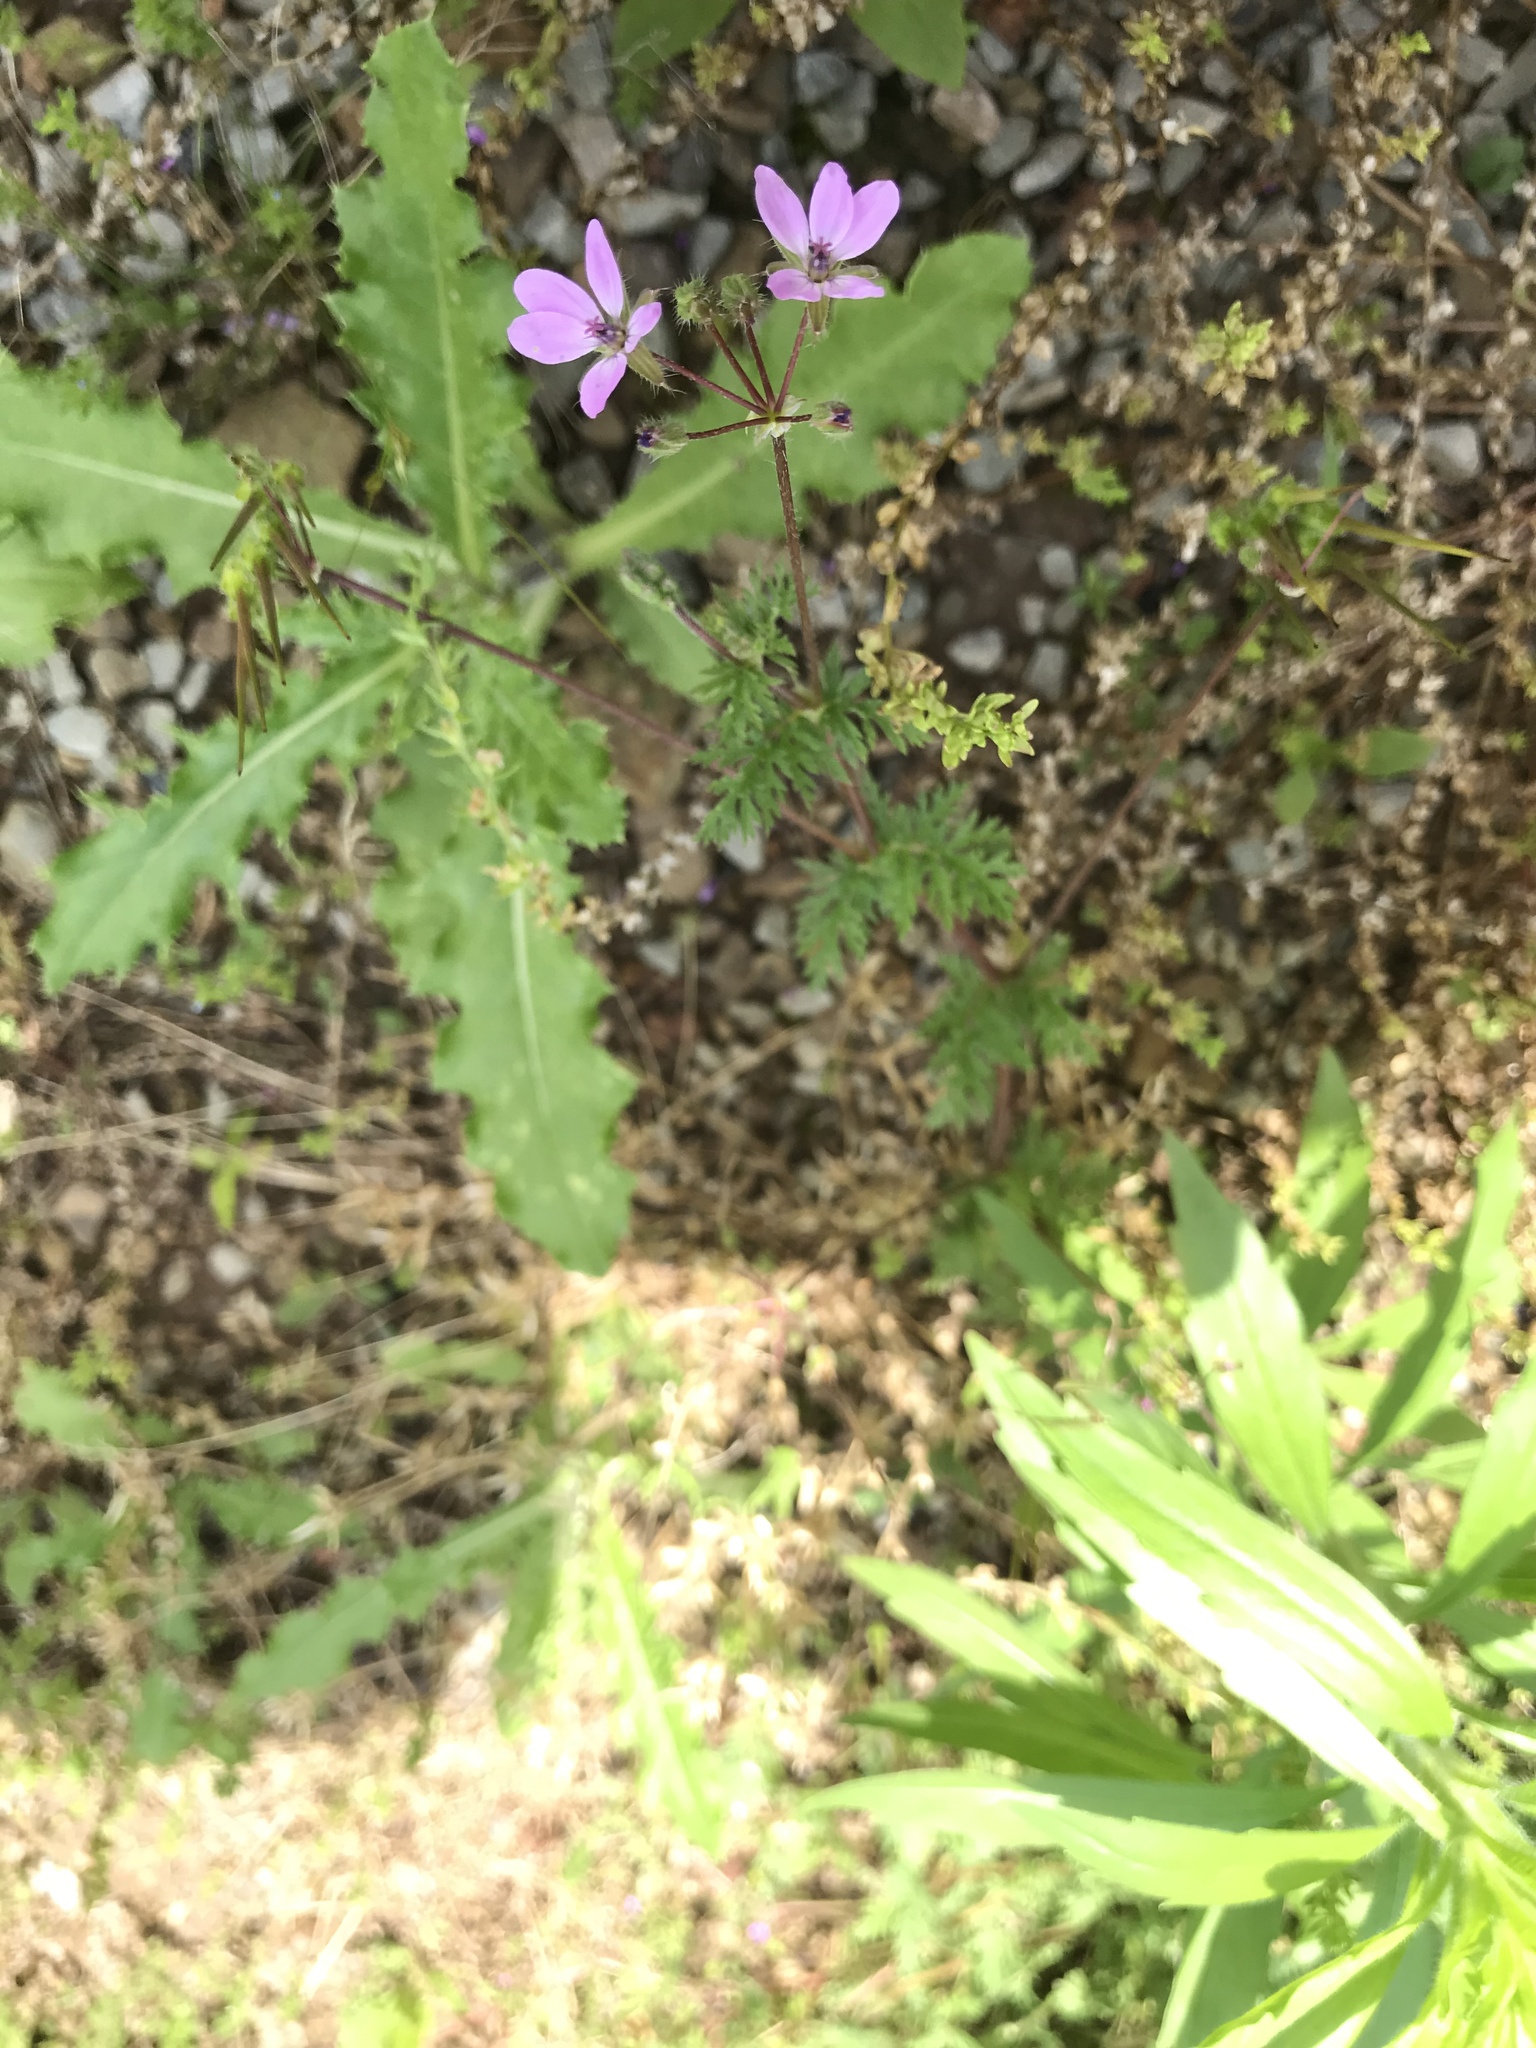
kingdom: Plantae
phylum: Tracheophyta
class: Magnoliopsida
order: Geraniales
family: Geraniaceae
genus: Erodium
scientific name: Erodium cicutarium
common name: Common stork's-bill
